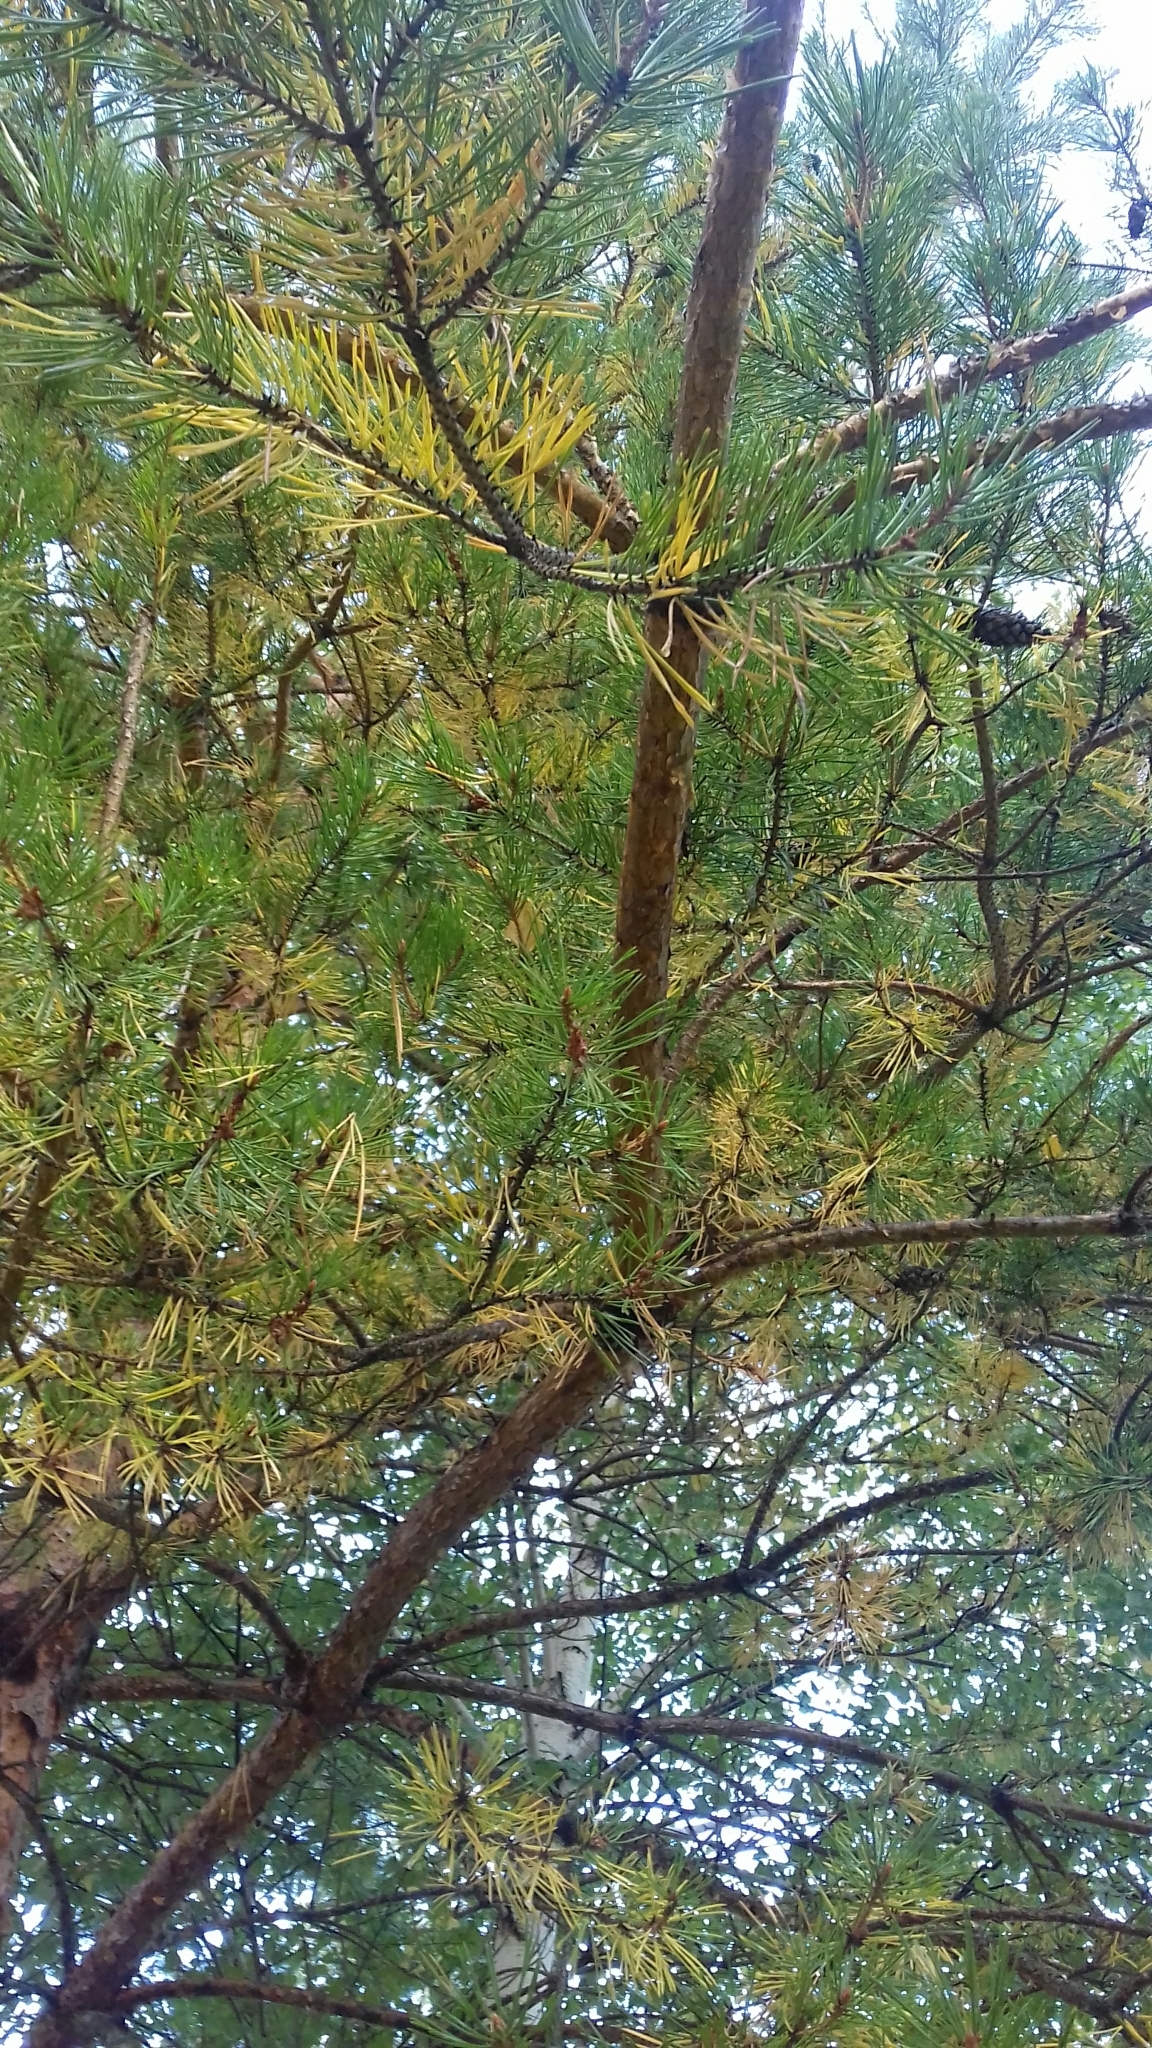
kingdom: Plantae
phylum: Tracheophyta
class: Pinopsida
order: Pinales
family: Pinaceae
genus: Pinus
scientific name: Pinus sylvestris
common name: Scots pine
